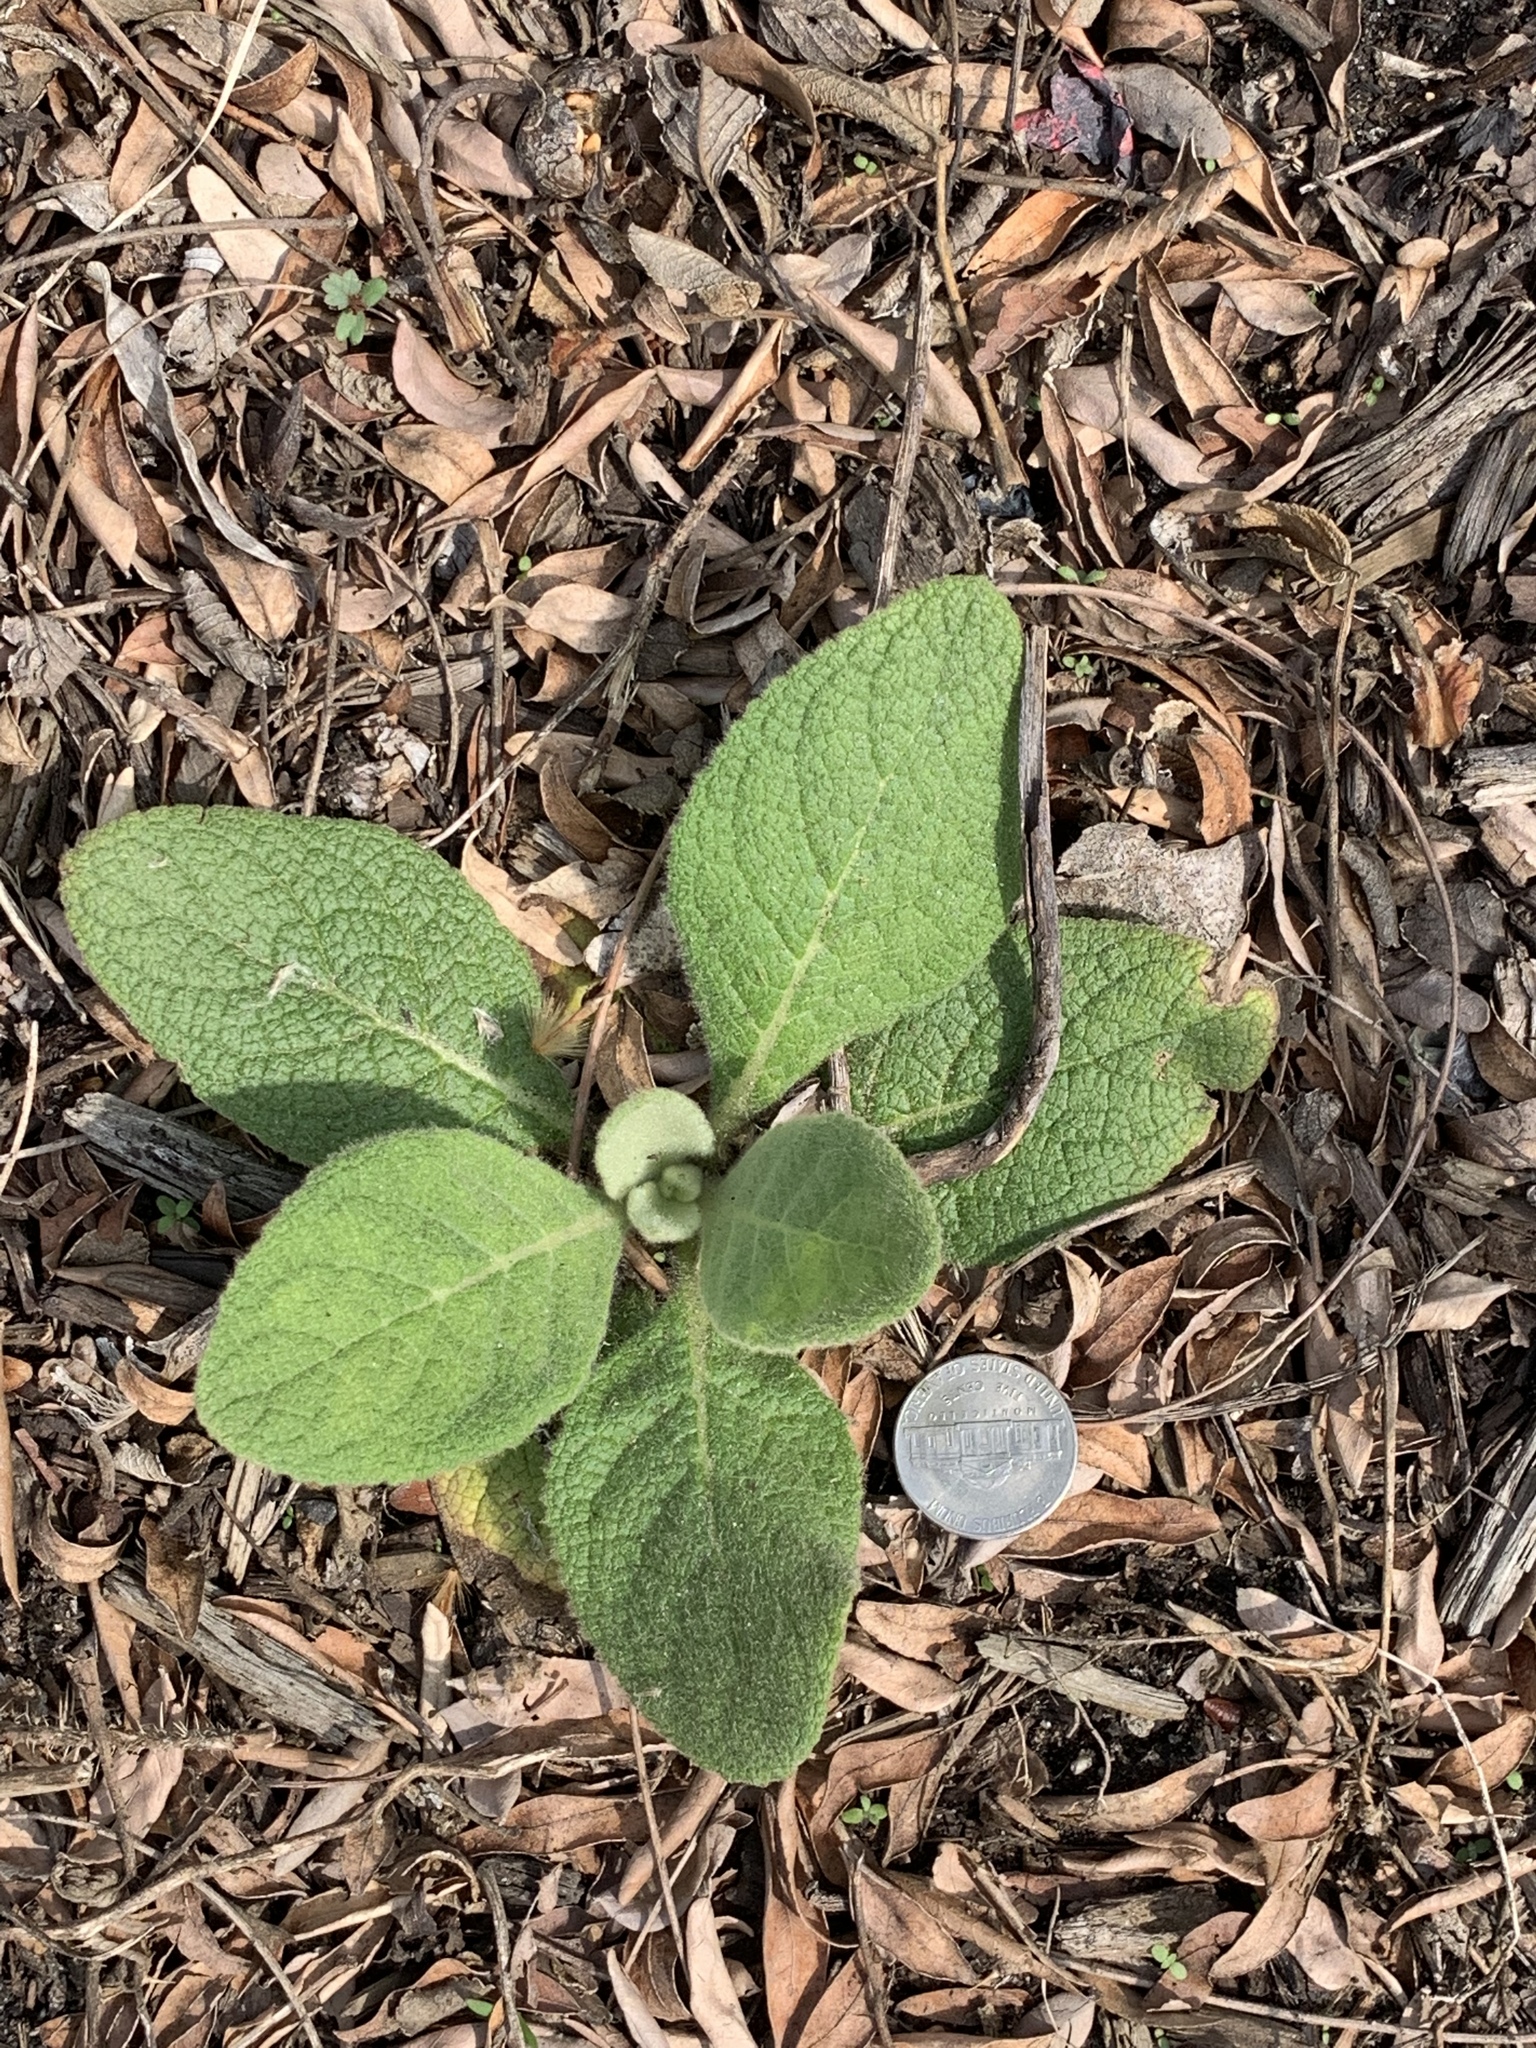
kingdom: Plantae
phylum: Tracheophyta
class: Magnoliopsida
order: Lamiales
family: Scrophulariaceae
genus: Verbascum
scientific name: Verbascum thapsus
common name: Common mullein
